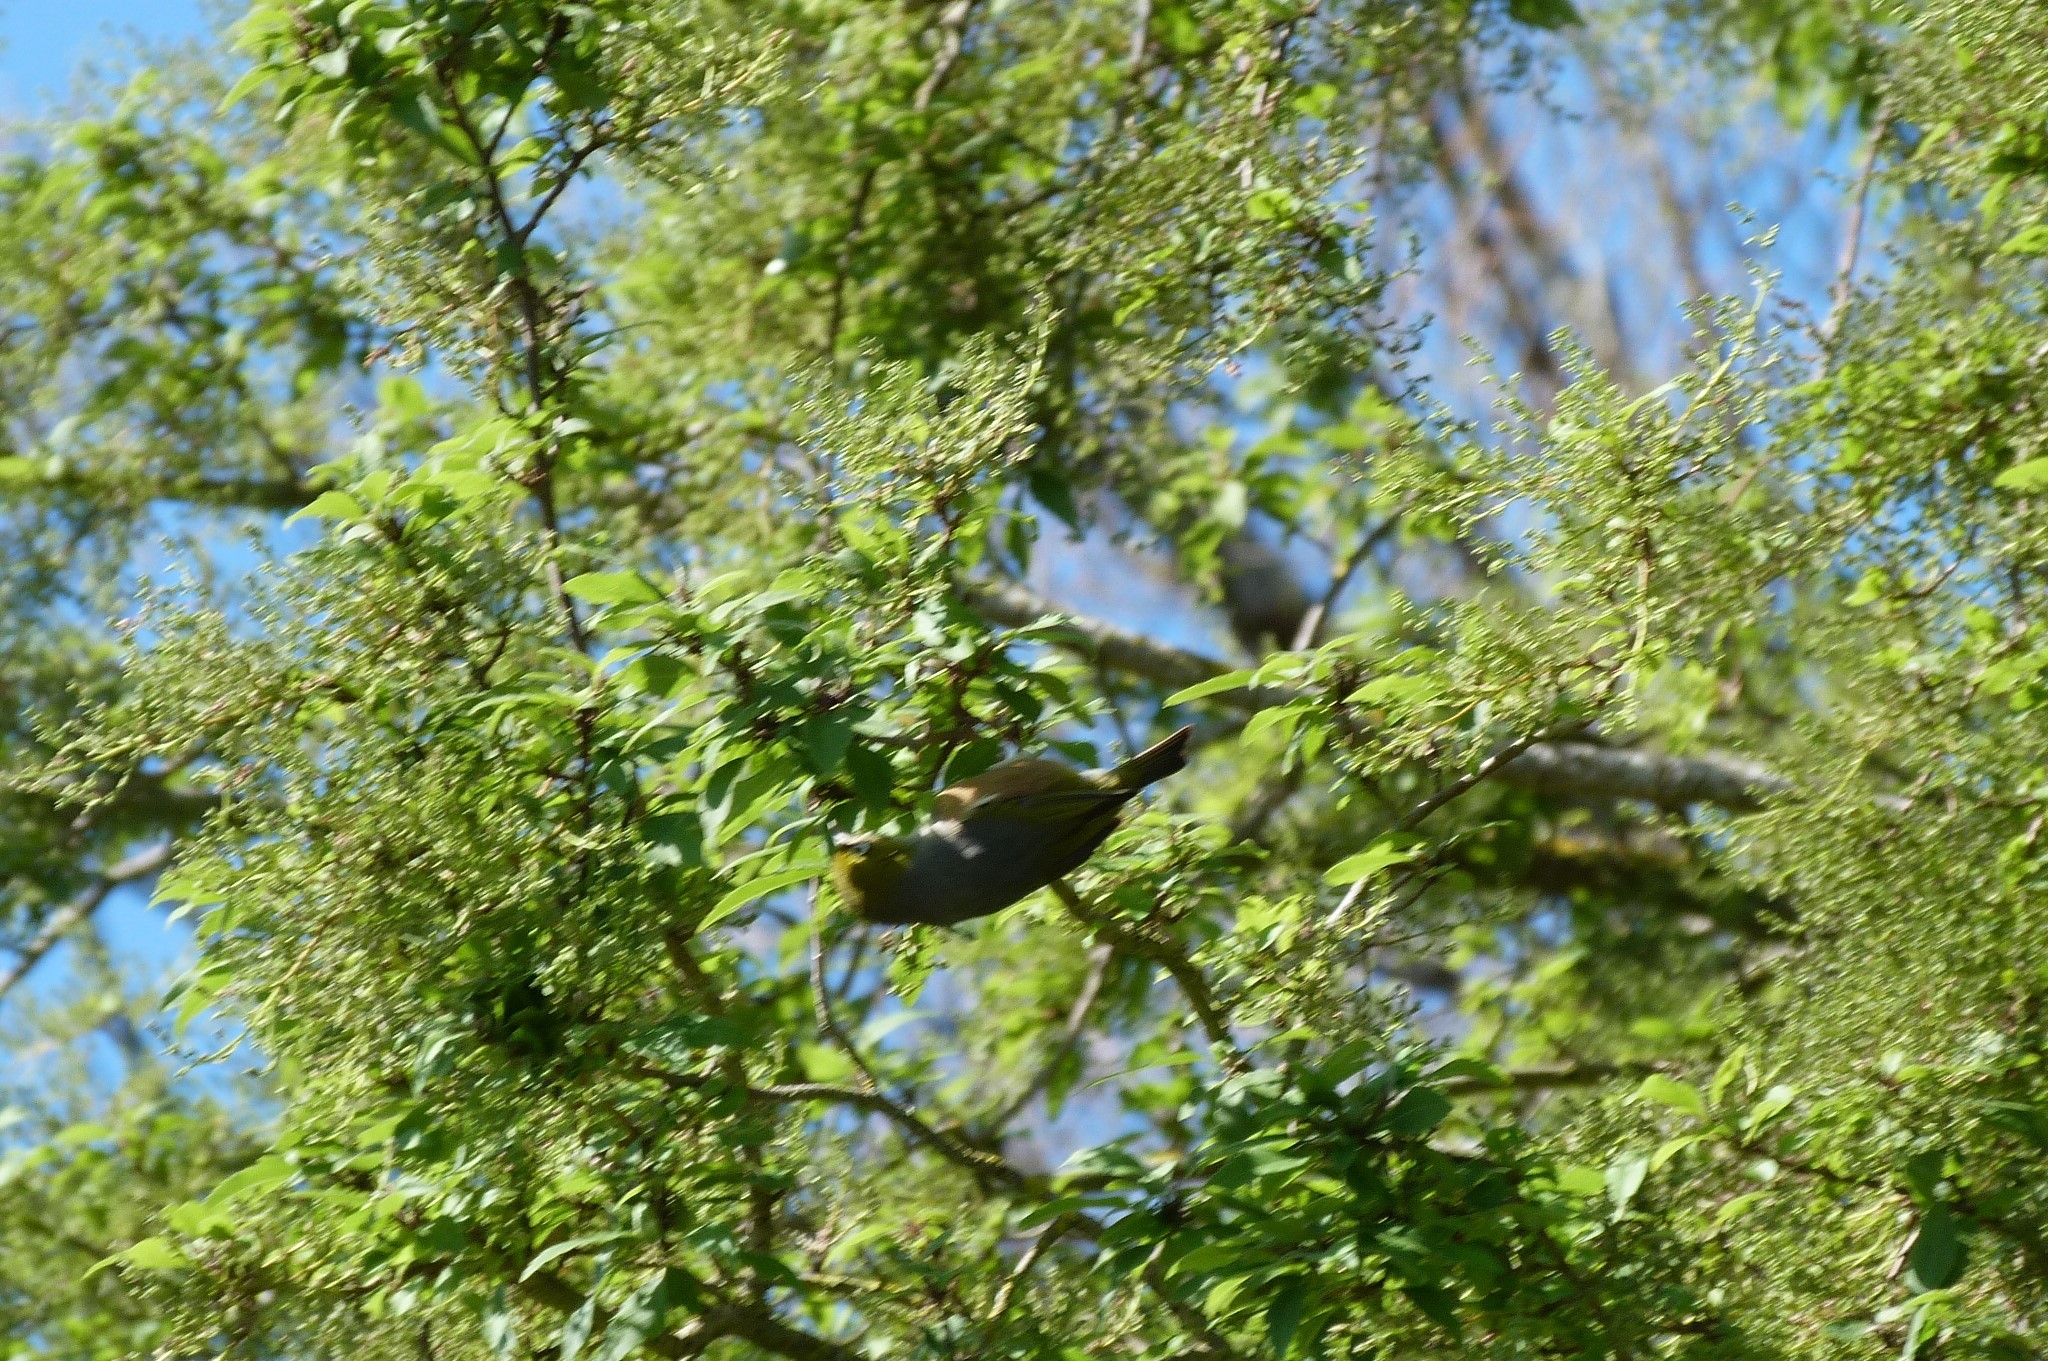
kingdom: Animalia
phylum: Chordata
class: Aves
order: Passeriformes
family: Zosteropidae
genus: Zosterops
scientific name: Zosterops lateralis
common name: Silvereye
